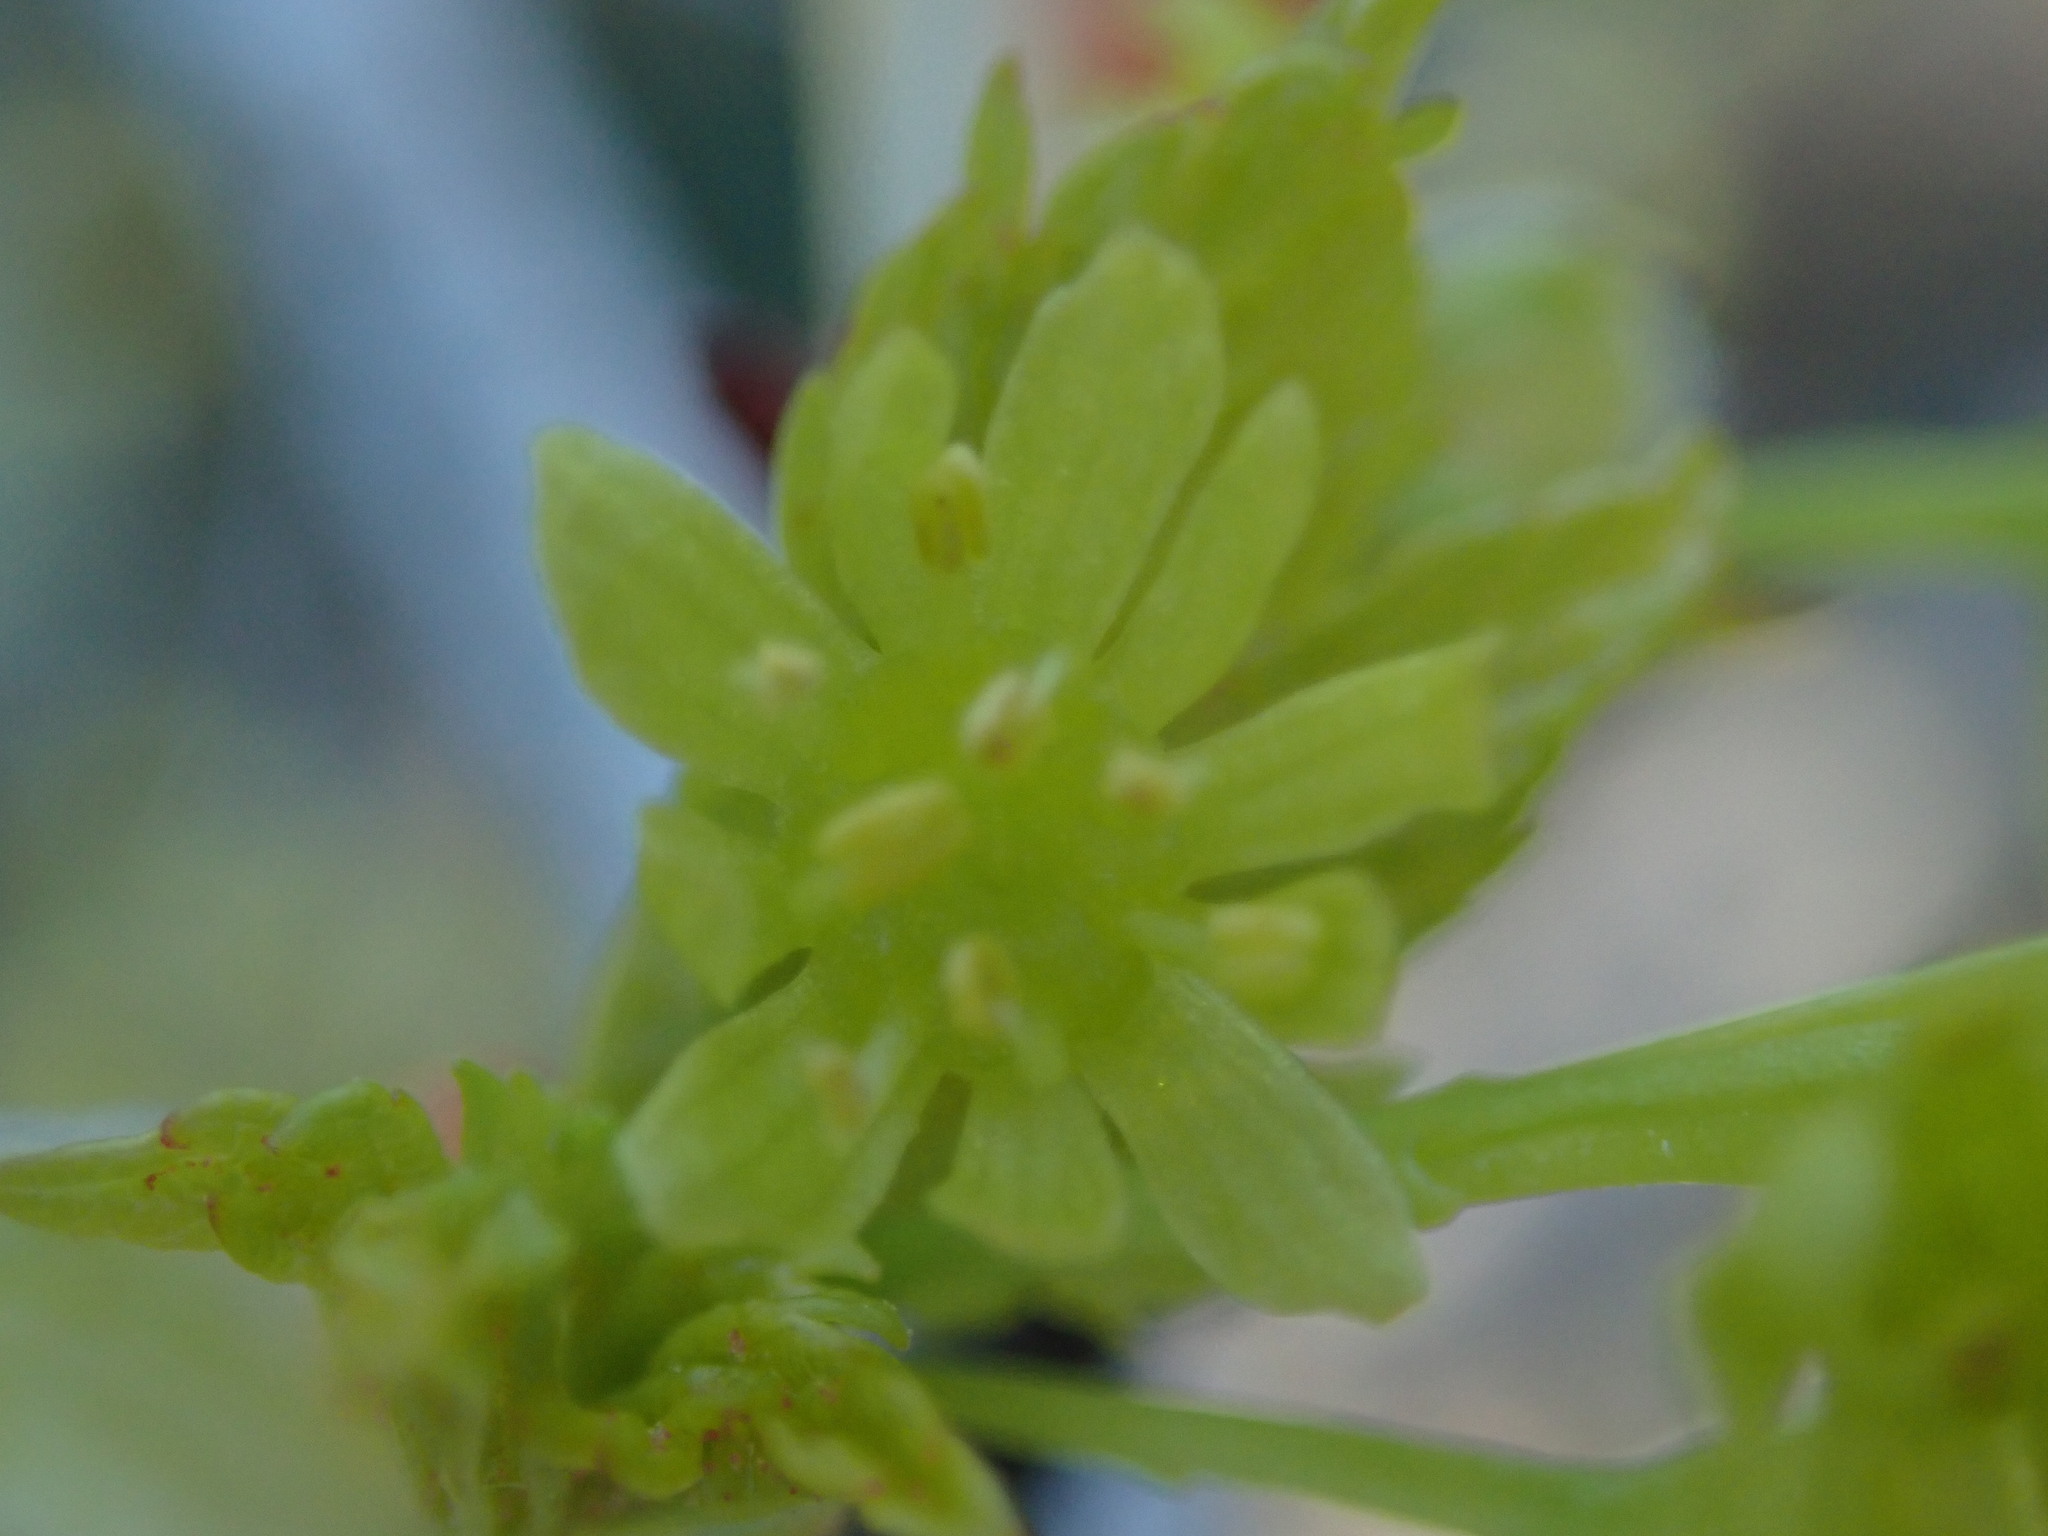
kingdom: Plantae
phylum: Tracheophyta
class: Magnoliopsida
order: Sapindales
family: Sapindaceae
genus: Acer
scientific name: Acer macrophyllum
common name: Oregon maple
